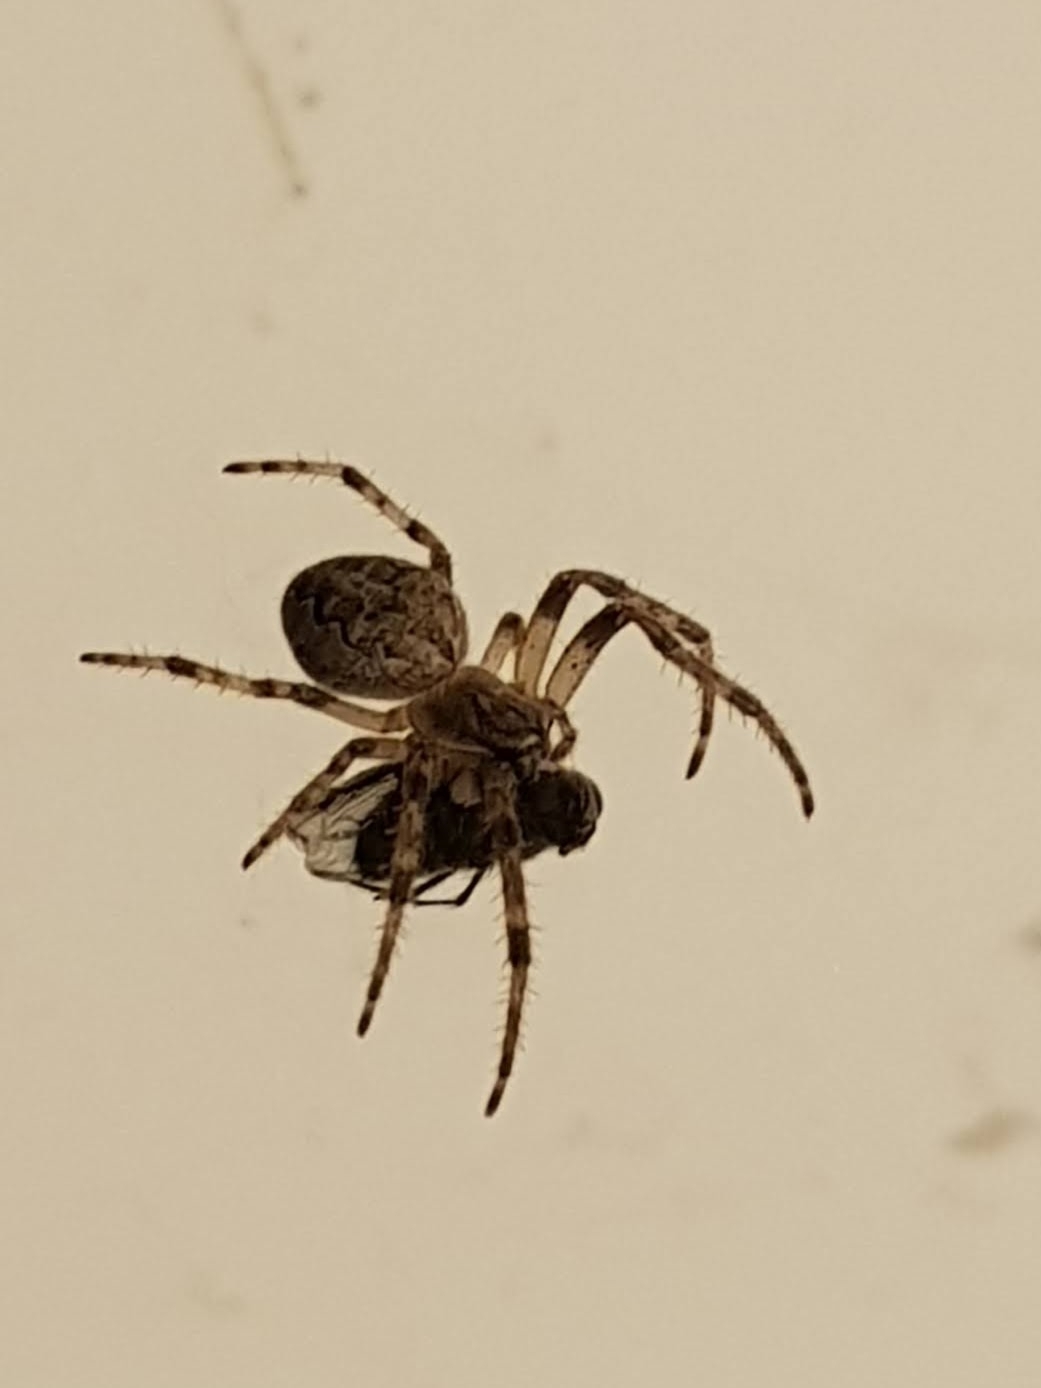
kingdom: Animalia
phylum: Arthropoda
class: Arachnida
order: Araneae
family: Araneidae
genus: Larinioides
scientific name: Larinioides ixobolus
